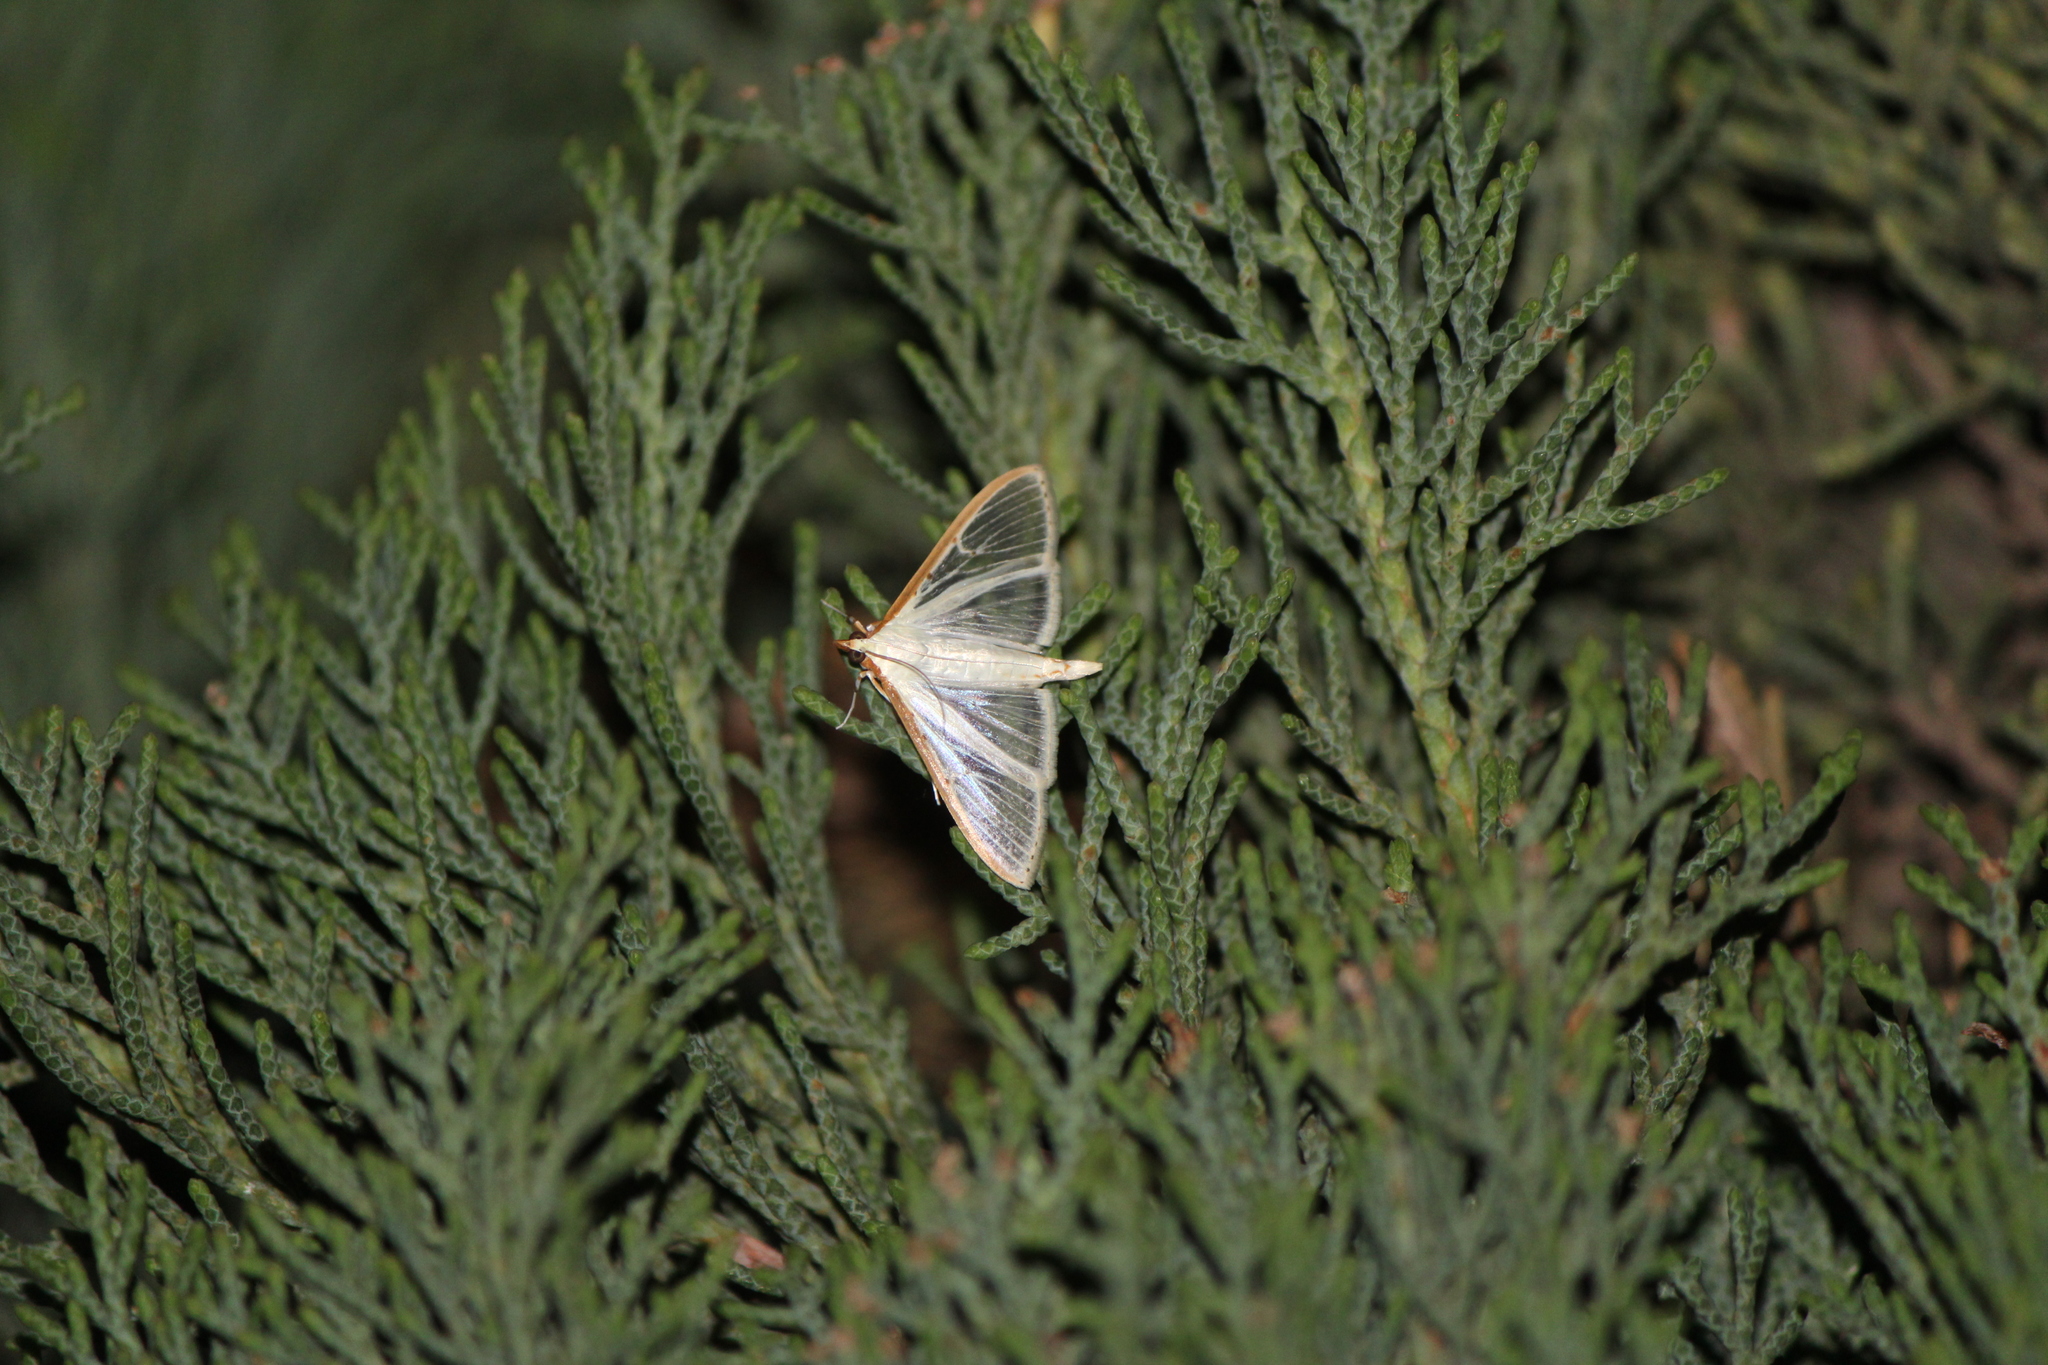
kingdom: Animalia
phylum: Arthropoda
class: Insecta
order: Lepidoptera
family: Crambidae
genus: Palpita
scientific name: Palpita quadristigmalis
